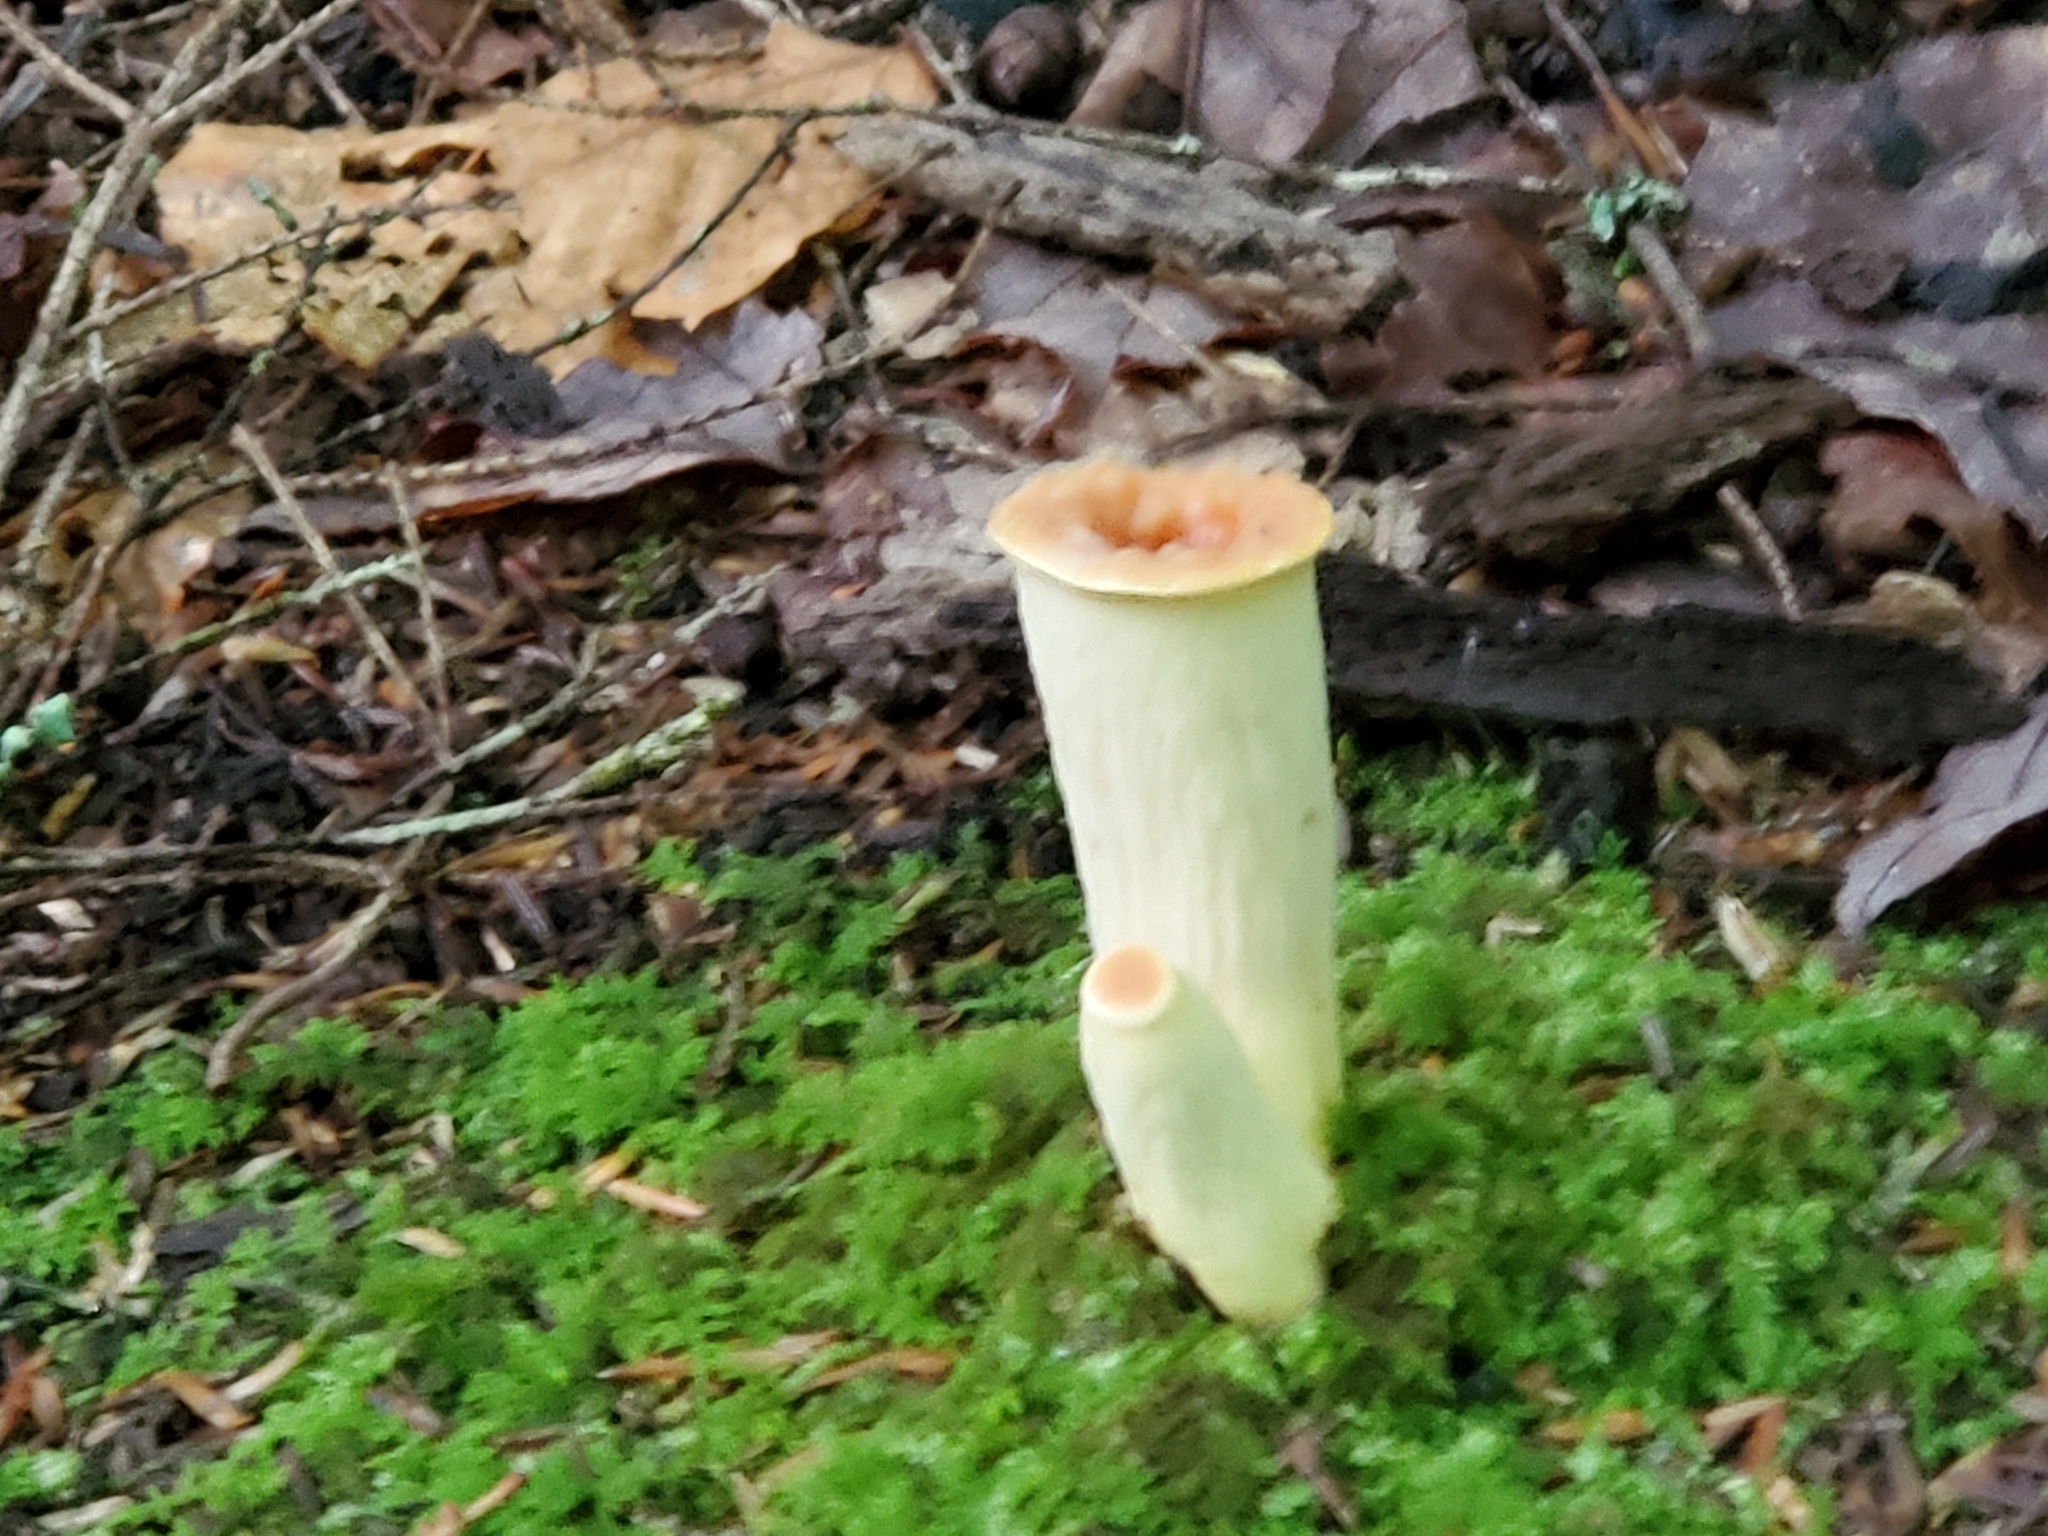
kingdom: Fungi
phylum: Basidiomycota
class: Agaricomycetes
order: Gomphales
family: Gomphaceae
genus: Turbinellus
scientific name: Turbinellus floccosus
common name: Scaly chanterelle
